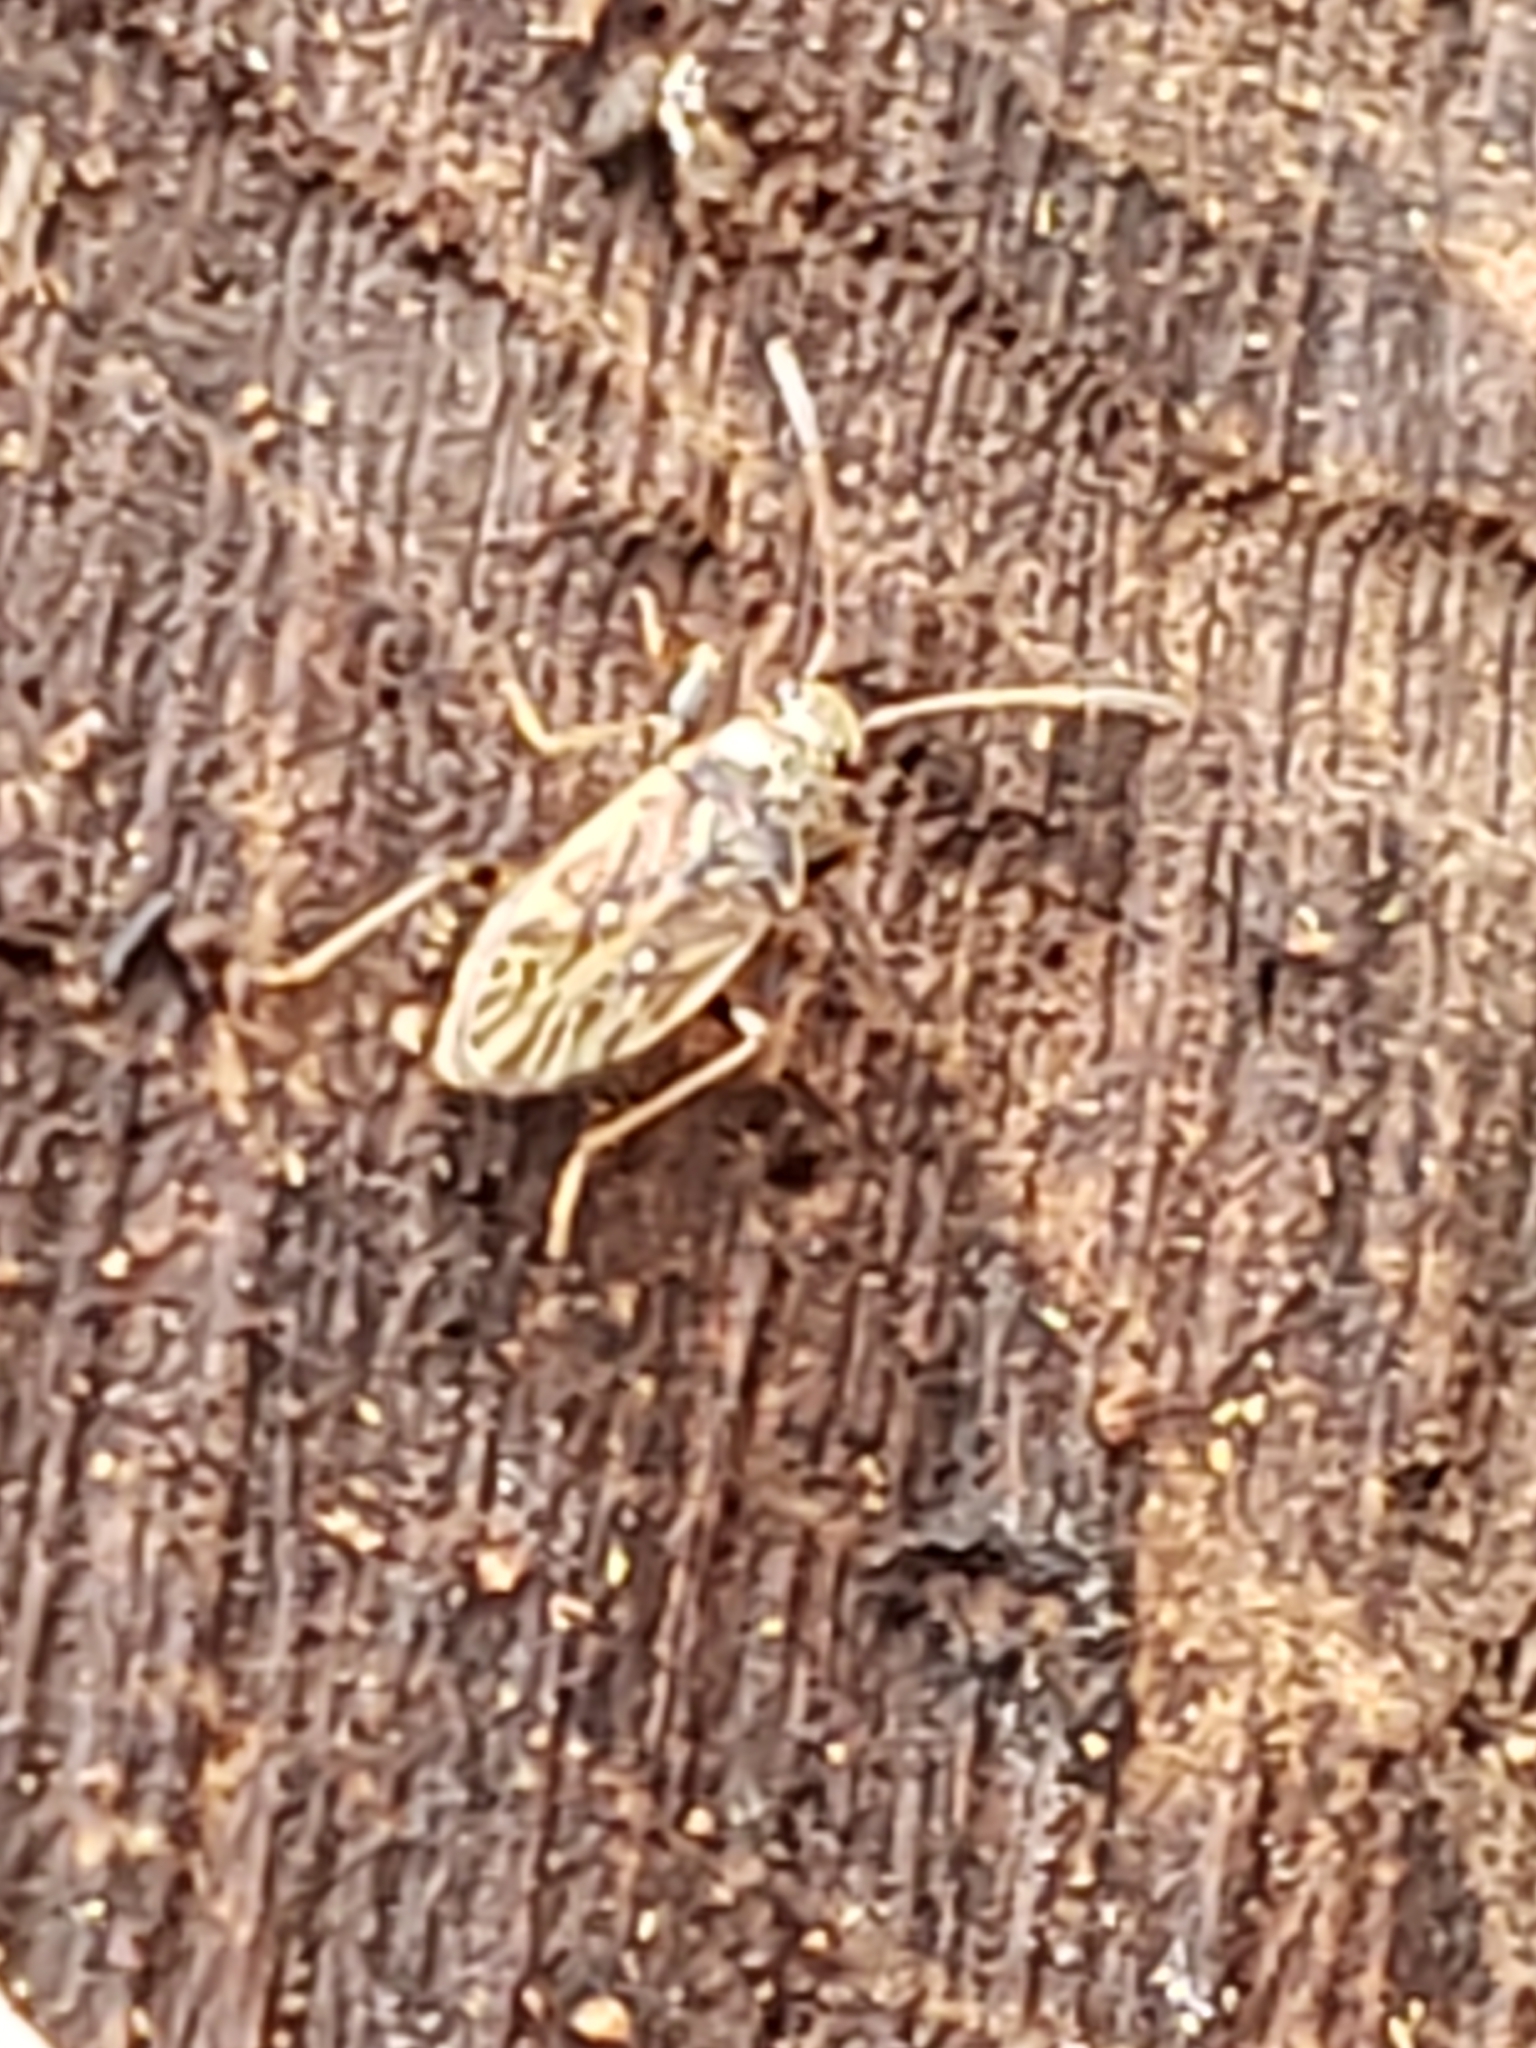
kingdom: Animalia
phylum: Arthropoda
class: Insecta
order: Hemiptera
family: Rhyparochromidae
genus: Pseudopachybrachius
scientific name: Pseudopachybrachius basalis
